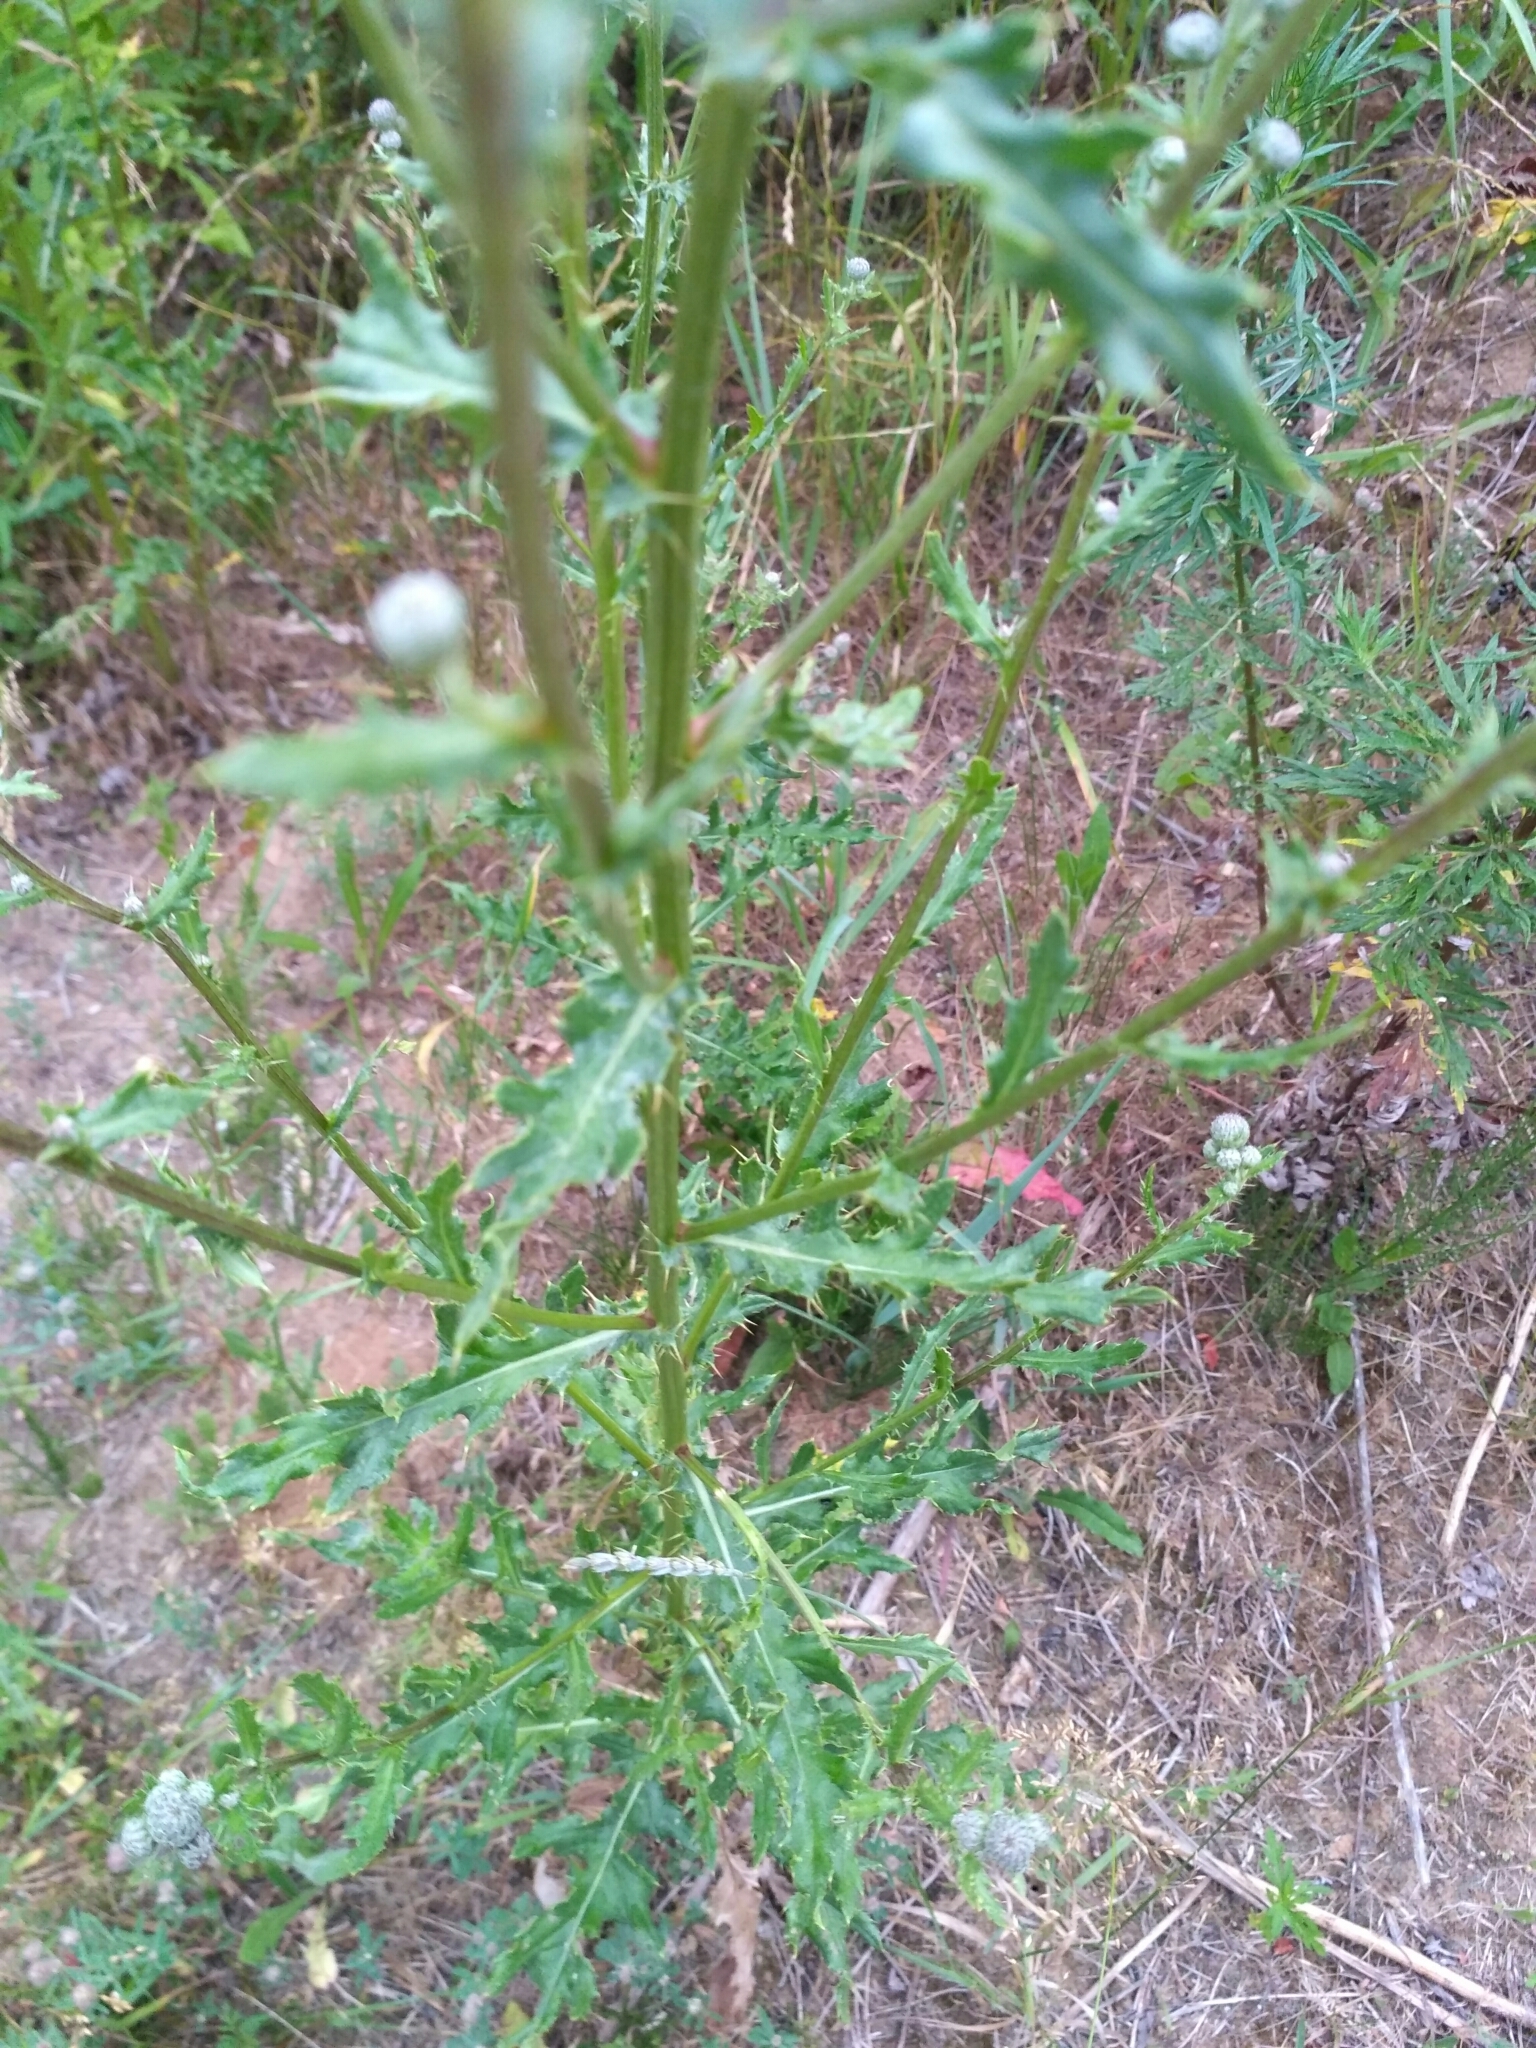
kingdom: Plantae
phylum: Tracheophyta
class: Magnoliopsida
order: Asterales
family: Asteraceae
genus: Cirsium
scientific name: Cirsium arvense
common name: Creeping thistle
